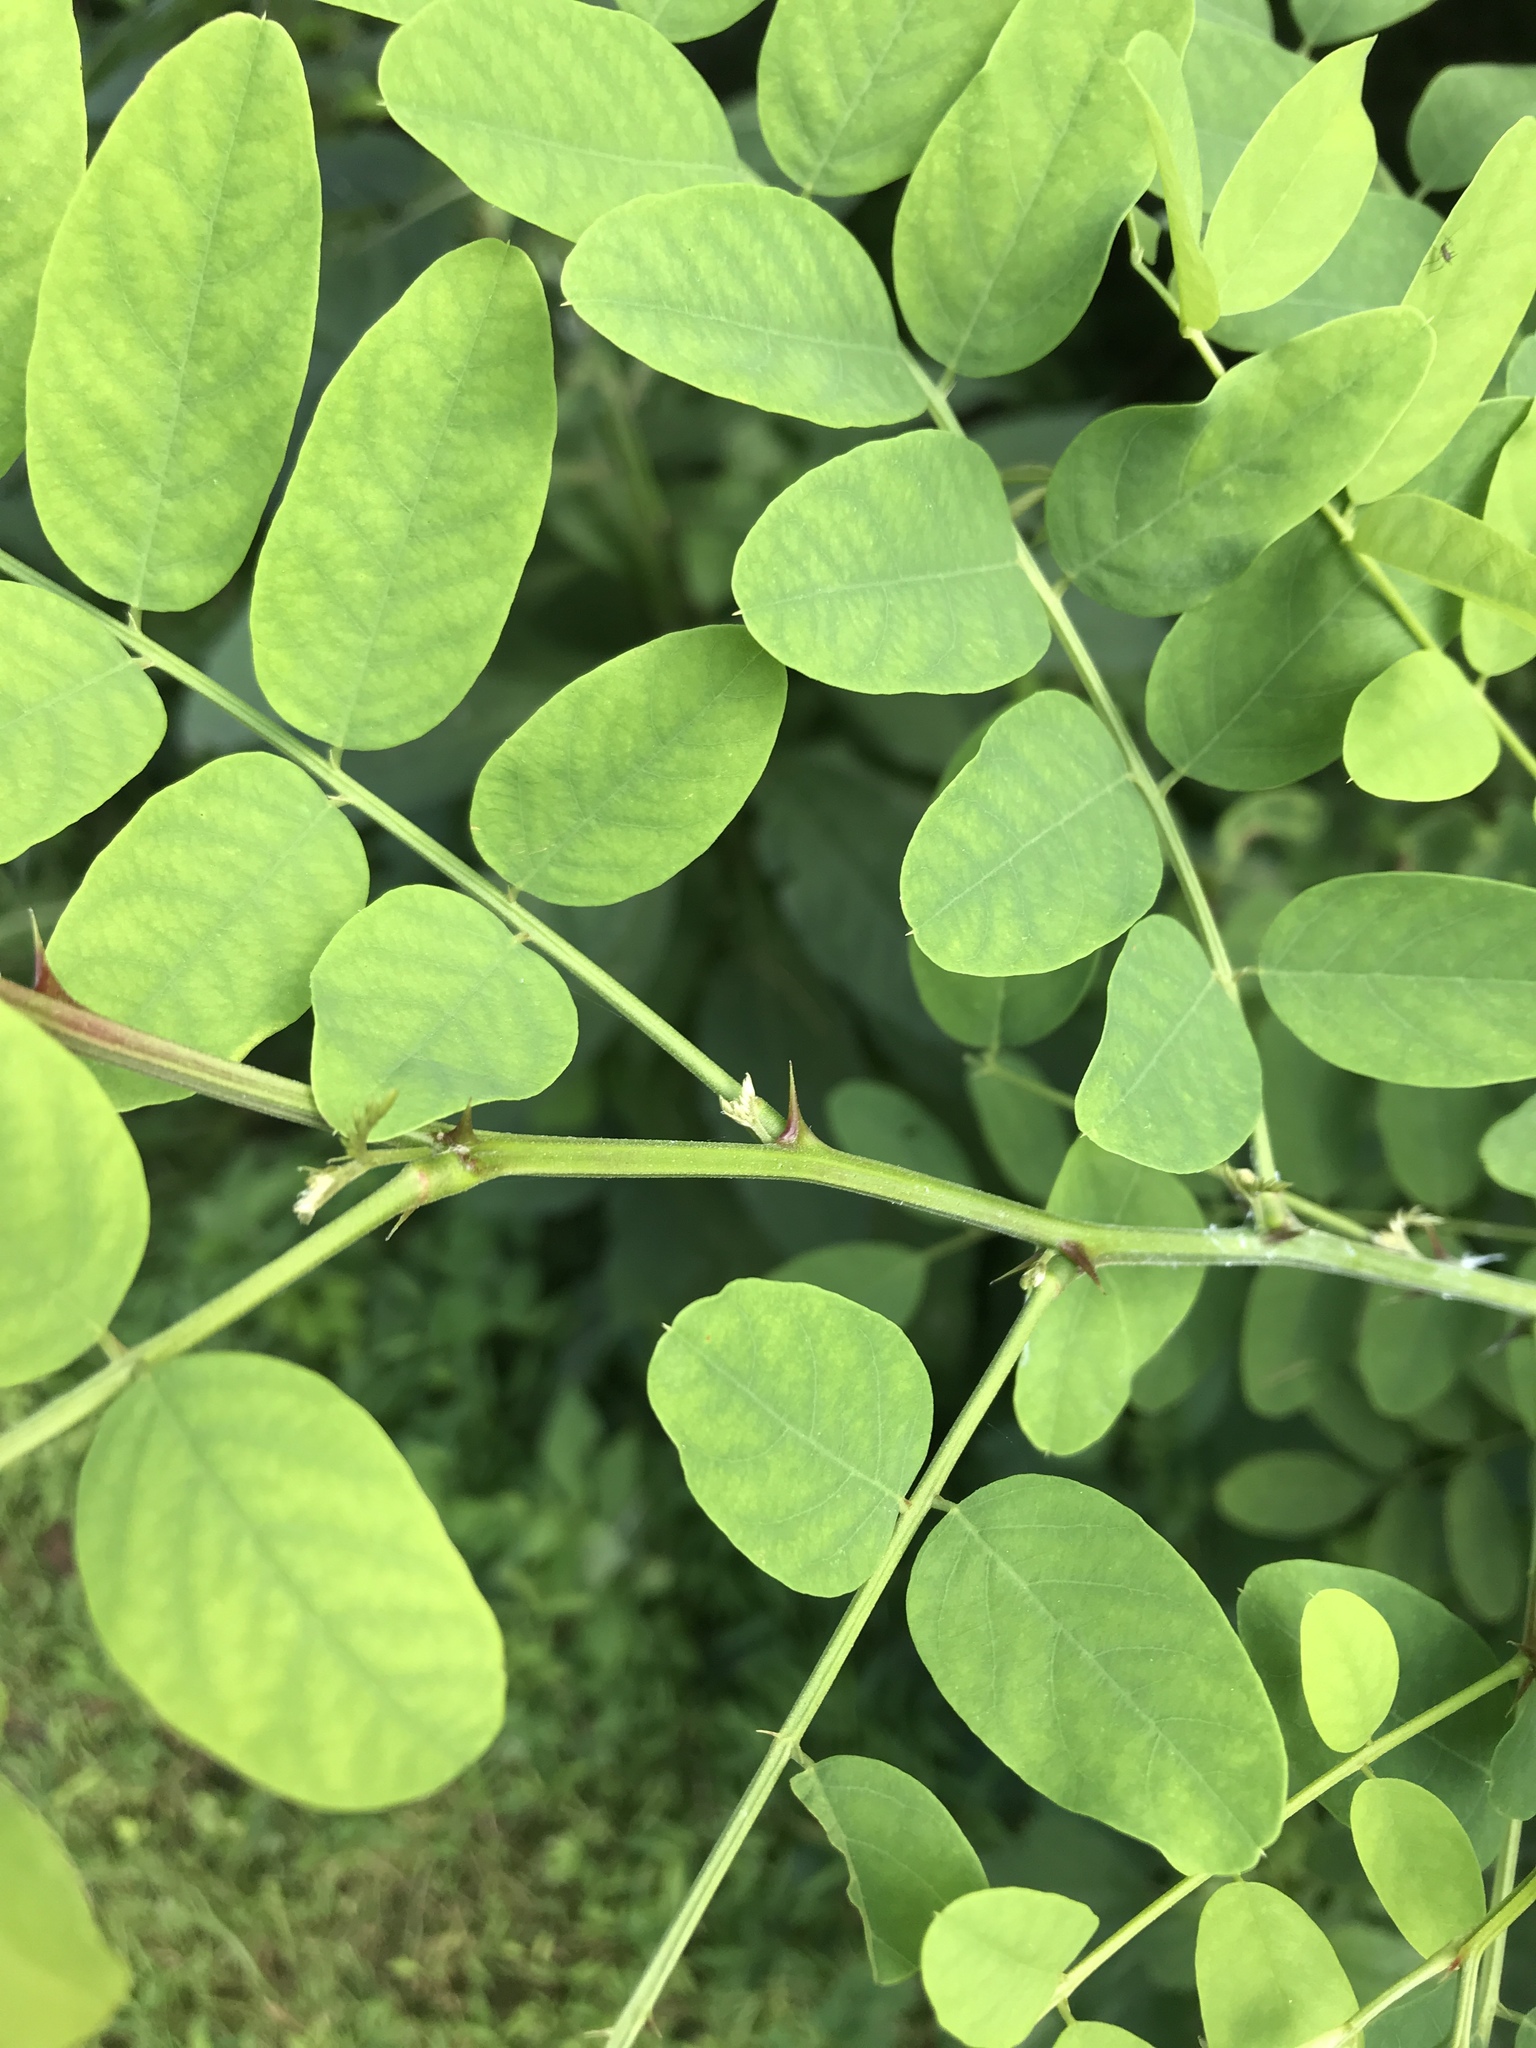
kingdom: Plantae
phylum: Tracheophyta
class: Magnoliopsida
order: Fabales
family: Fabaceae
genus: Robinia
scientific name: Robinia pseudoacacia
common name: Black locust
